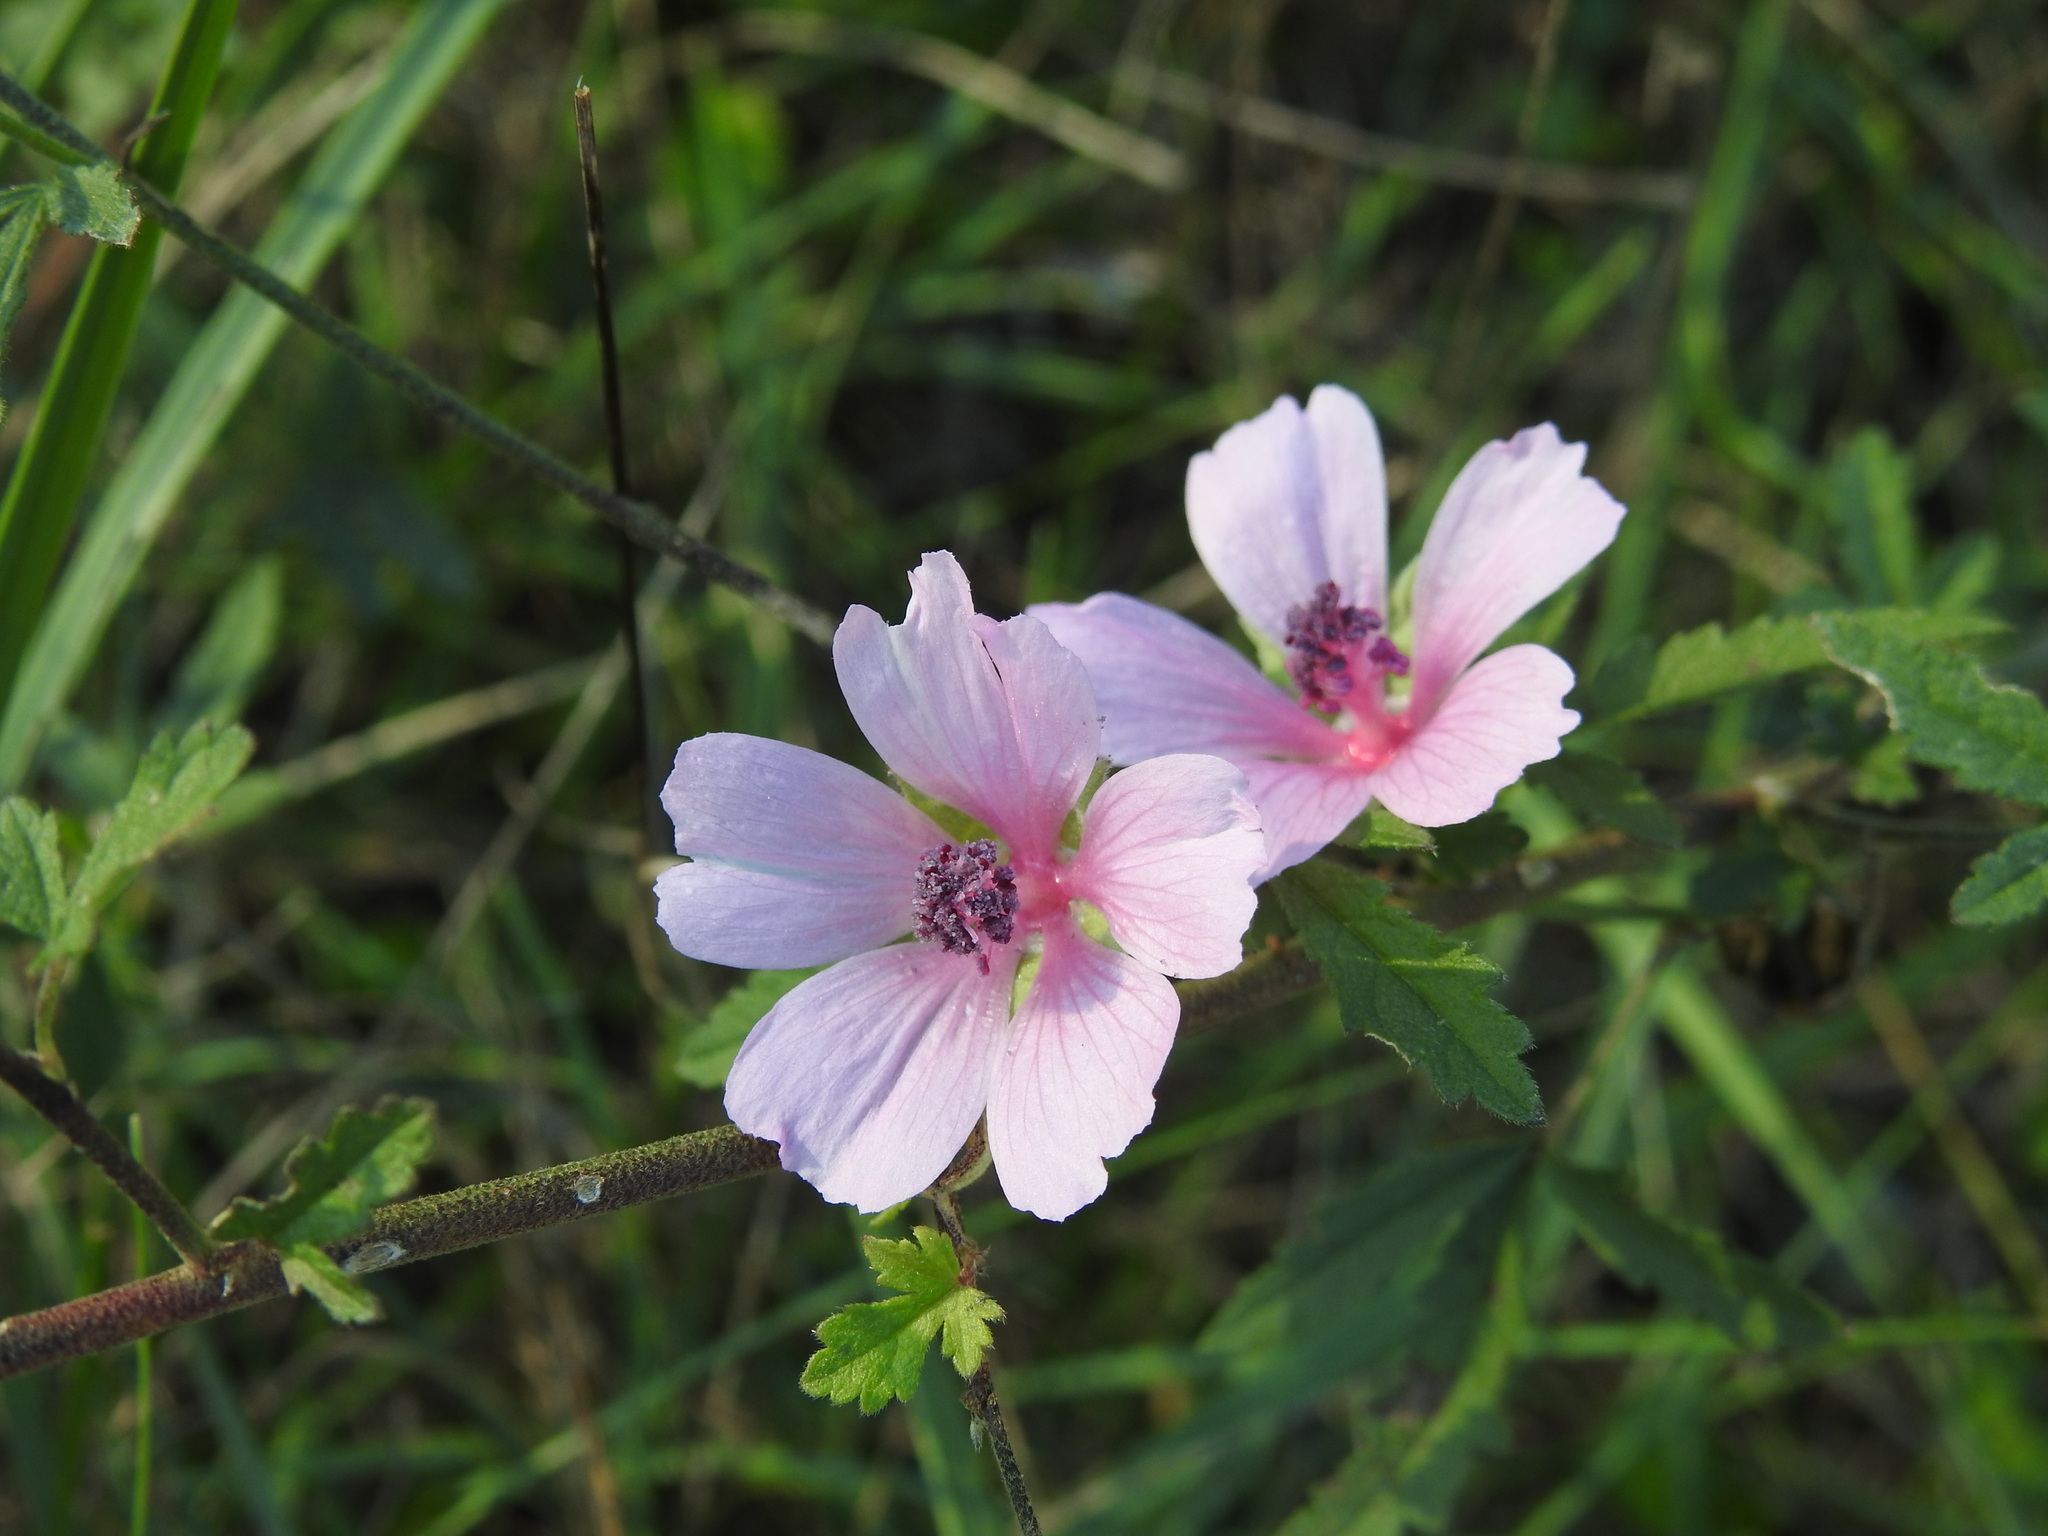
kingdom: Plantae
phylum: Tracheophyta
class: Magnoliopsida
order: Malvales
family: Malvaceae
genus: Althaea
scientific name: Althaea cannabina
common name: Palm-leaf marshmallow
